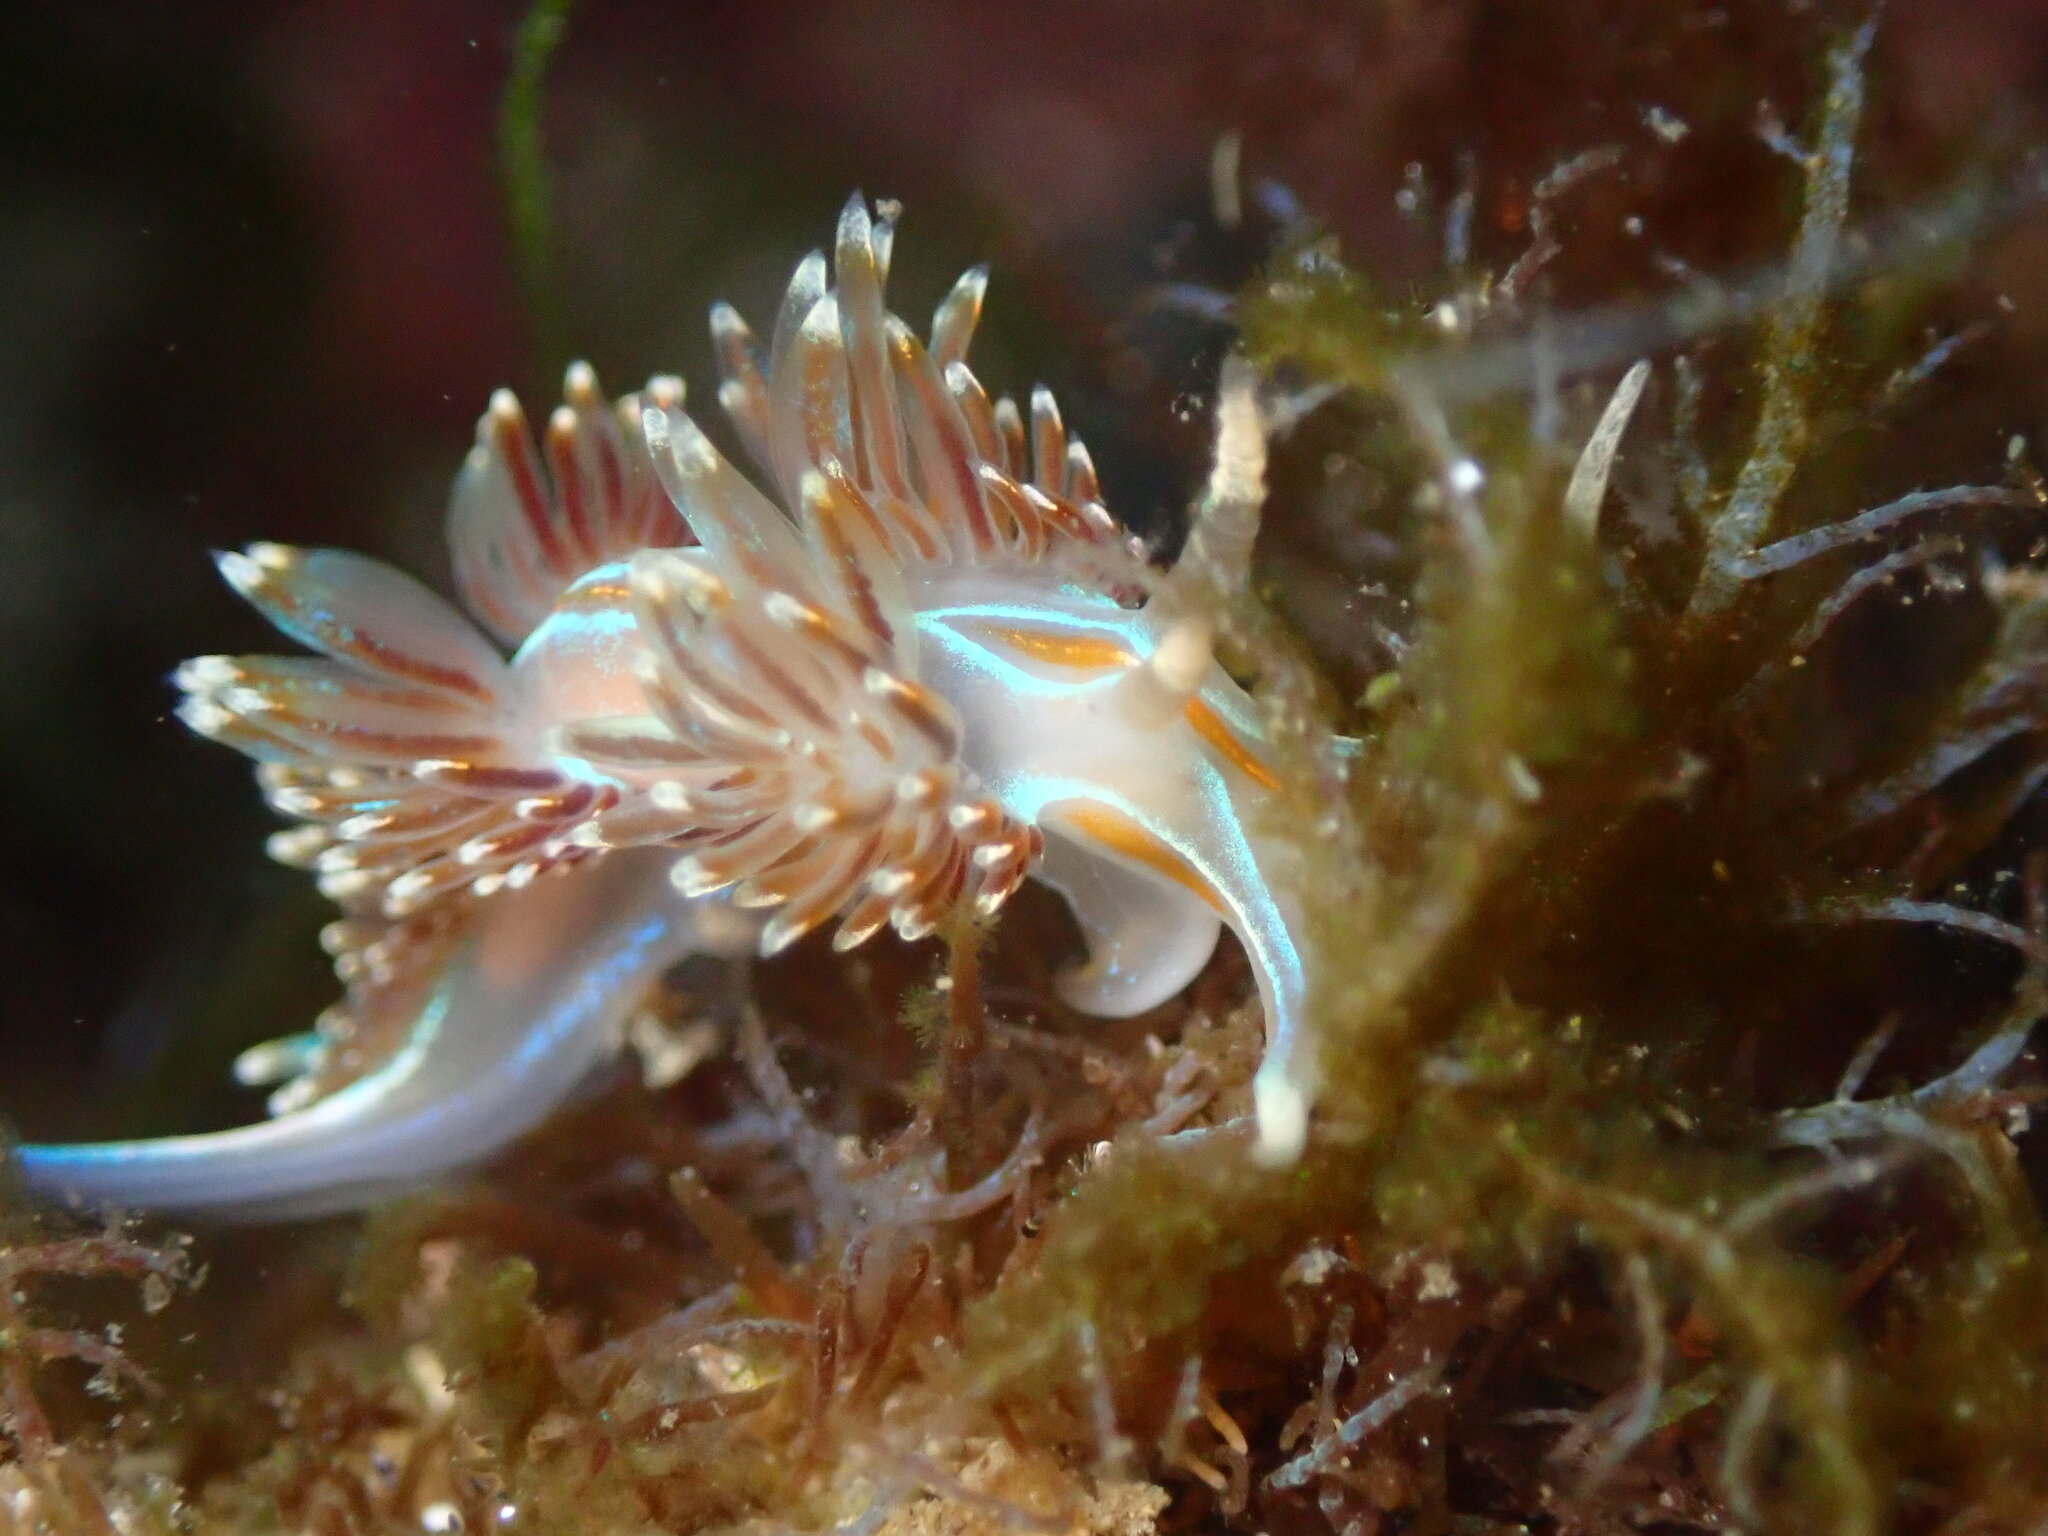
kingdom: Animalia
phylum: Mollusca
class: Gastropoda
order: Nudibranchia
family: Myrrhinidae
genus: Hermissenda
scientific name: Hermissenda opalescens
